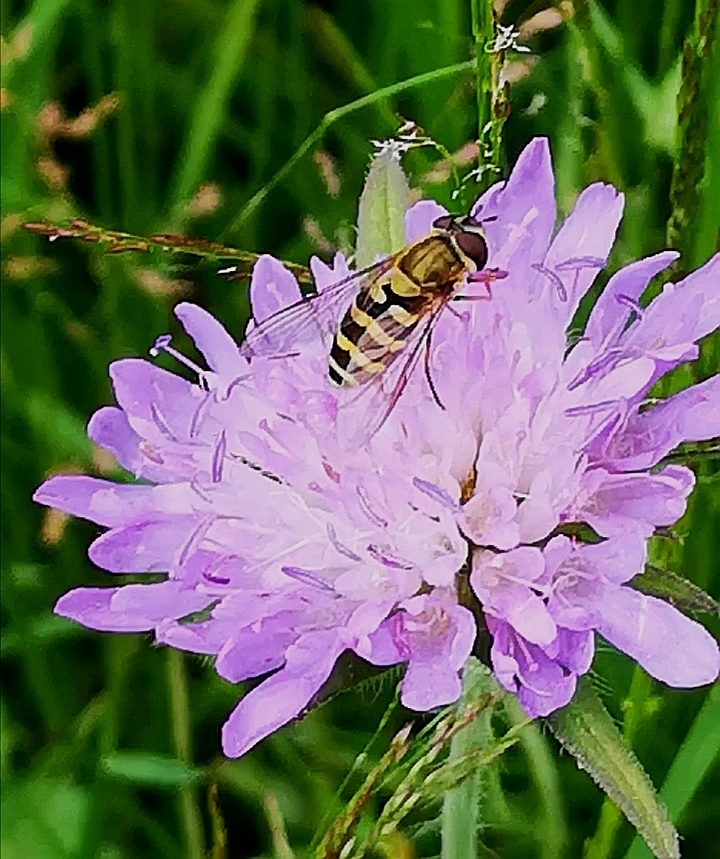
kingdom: Animalia
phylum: Arthropoda
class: Insecta
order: Diptera
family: Syrphidae
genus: Syrphus
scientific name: Syrphus
